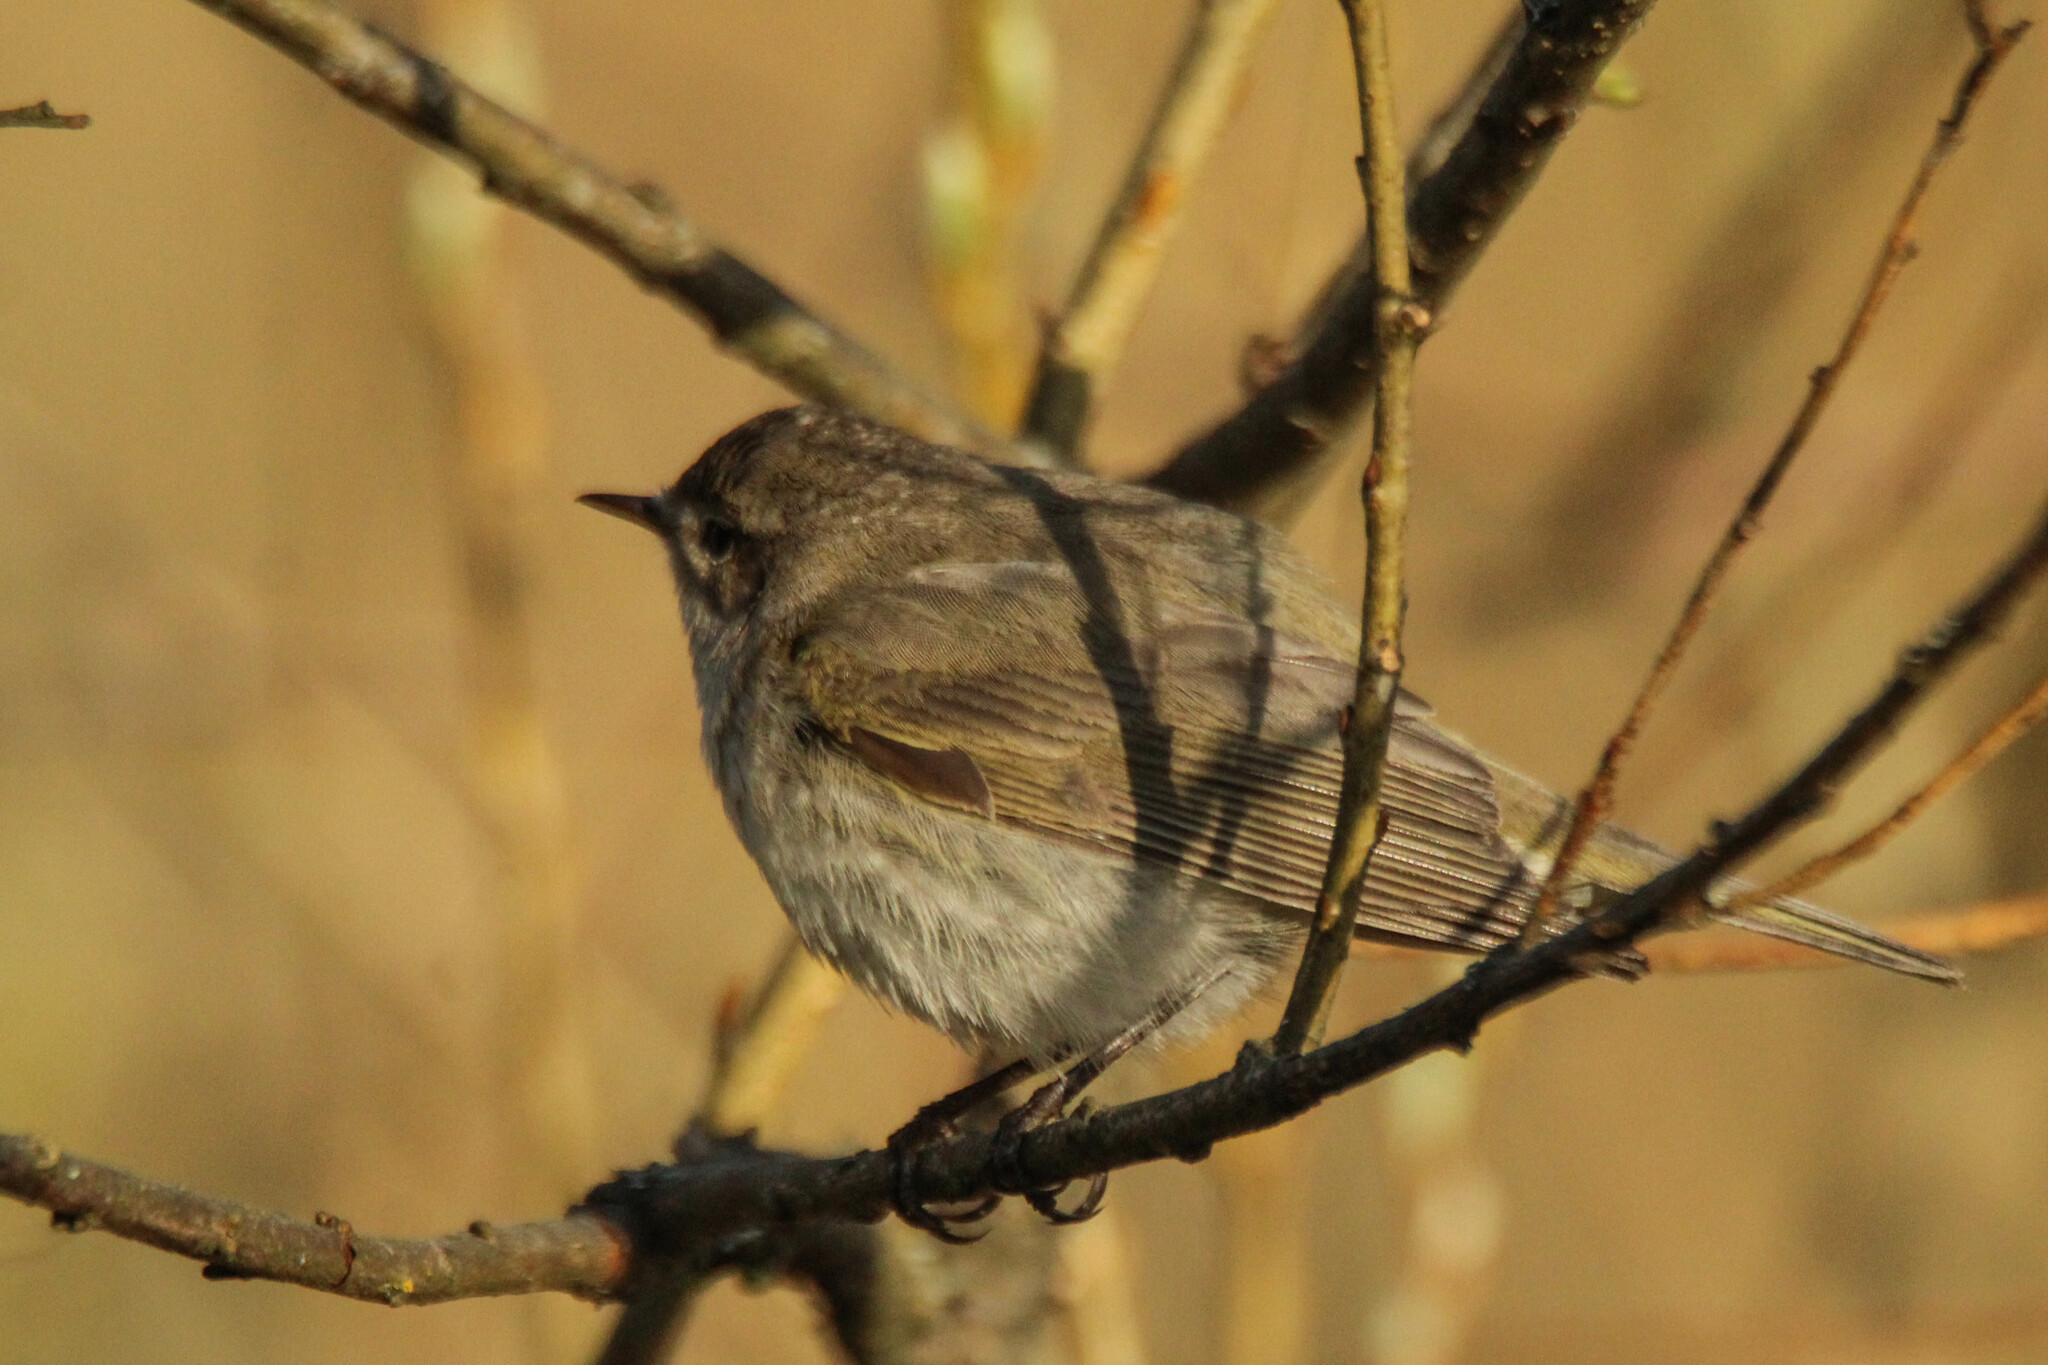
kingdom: Animalia
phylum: Chordata
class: Aves
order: Passeriformes
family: Phylloscopidae
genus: Phylloscopus
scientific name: Phylloscopus collybita
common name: Common chiffchaff
